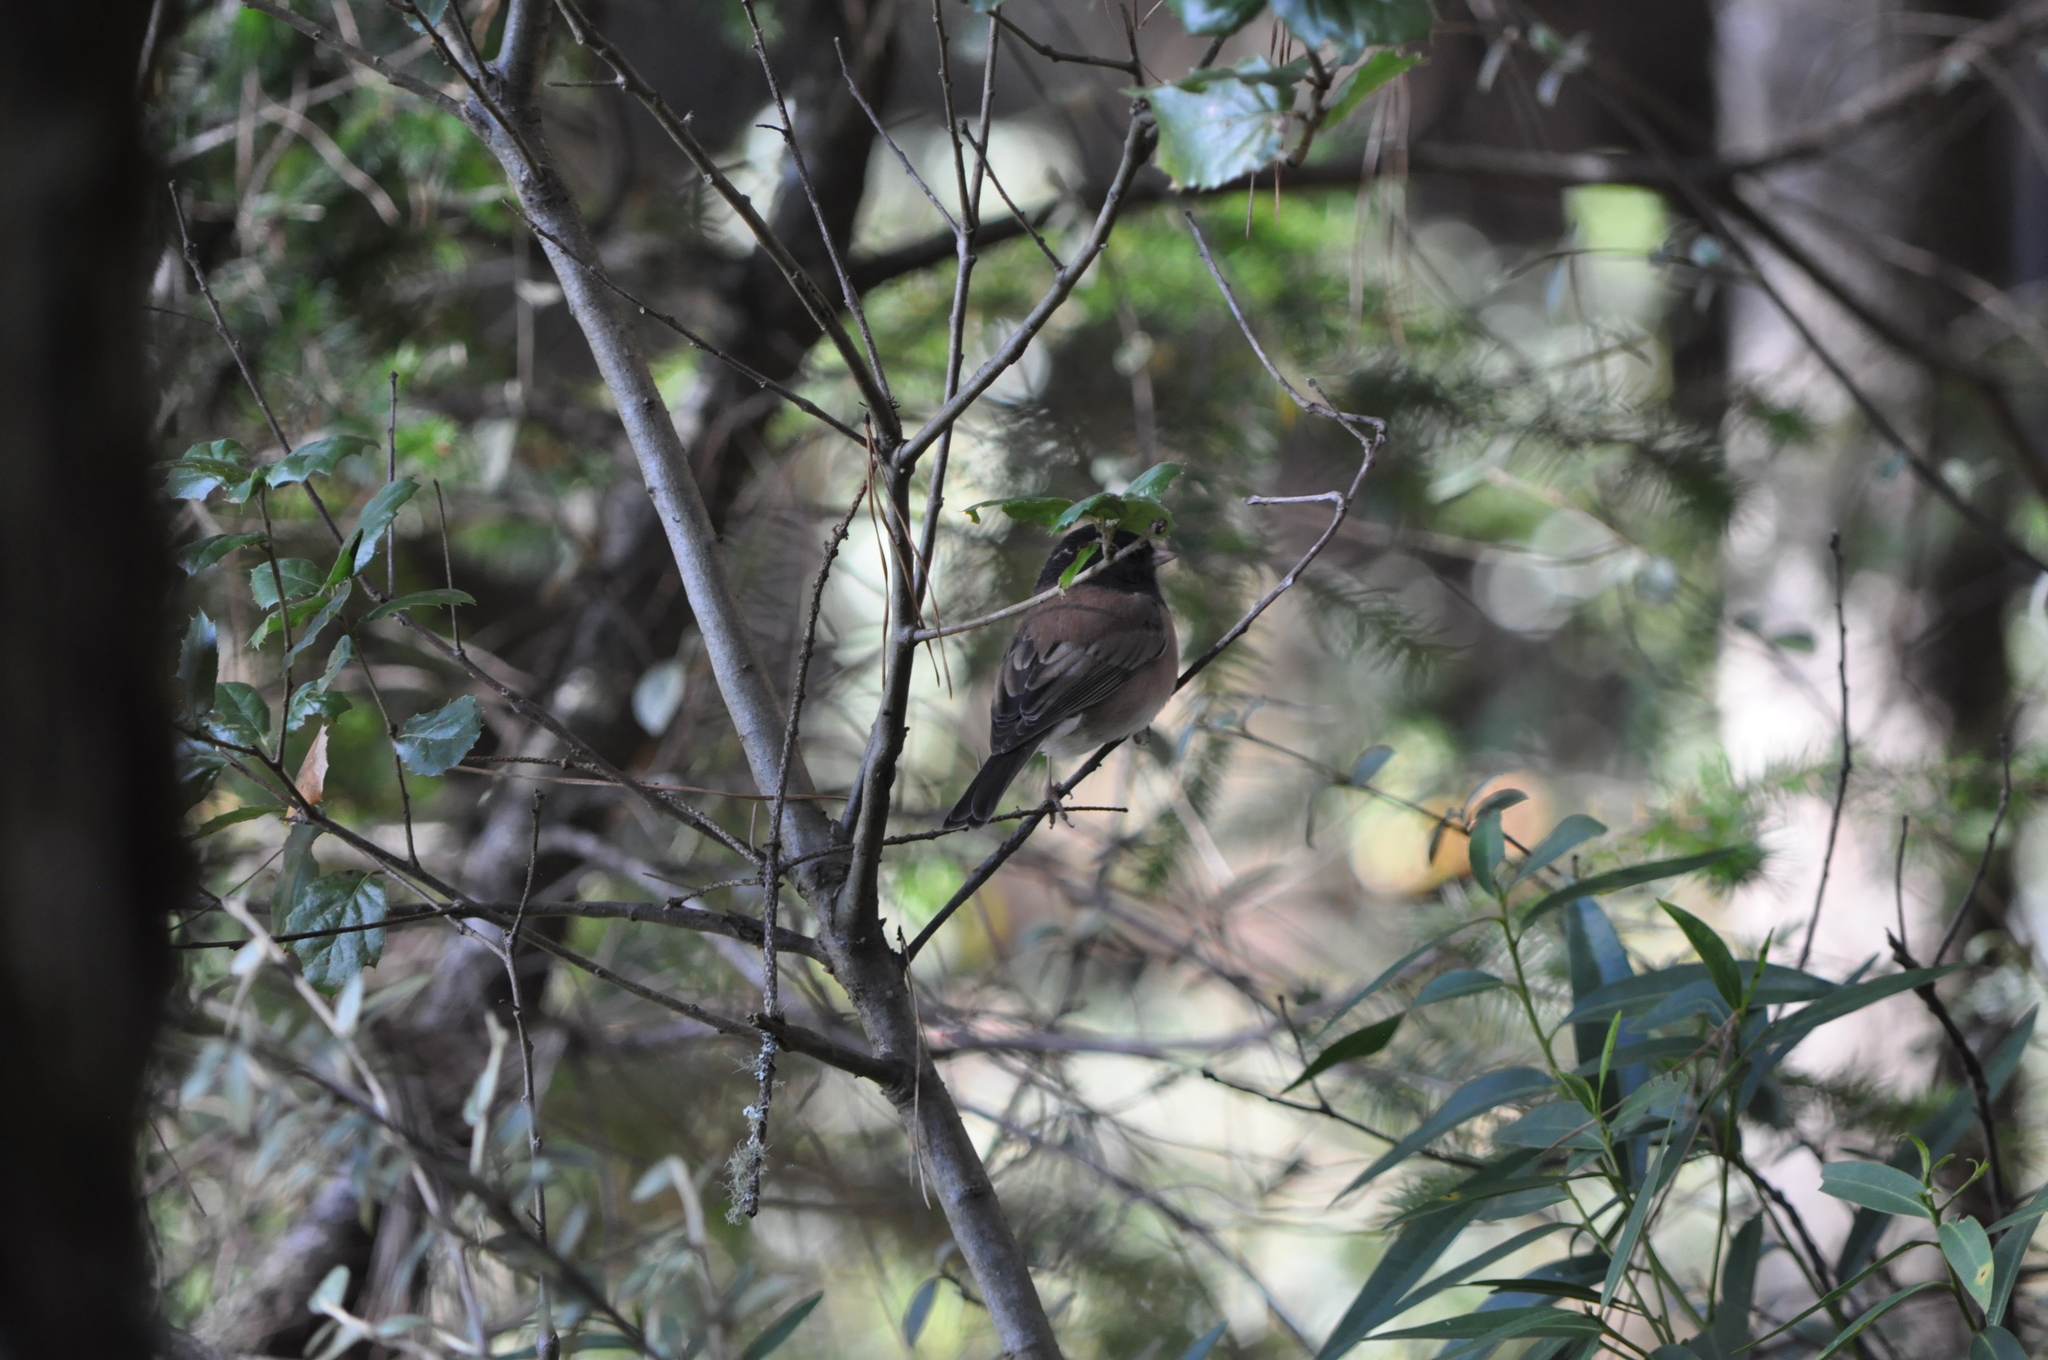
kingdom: Animalia
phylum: Chordata
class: Aves
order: Passeriformes
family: Passerellidae
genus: Junco
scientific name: Junco hyemalis
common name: Dark-eyed junco
